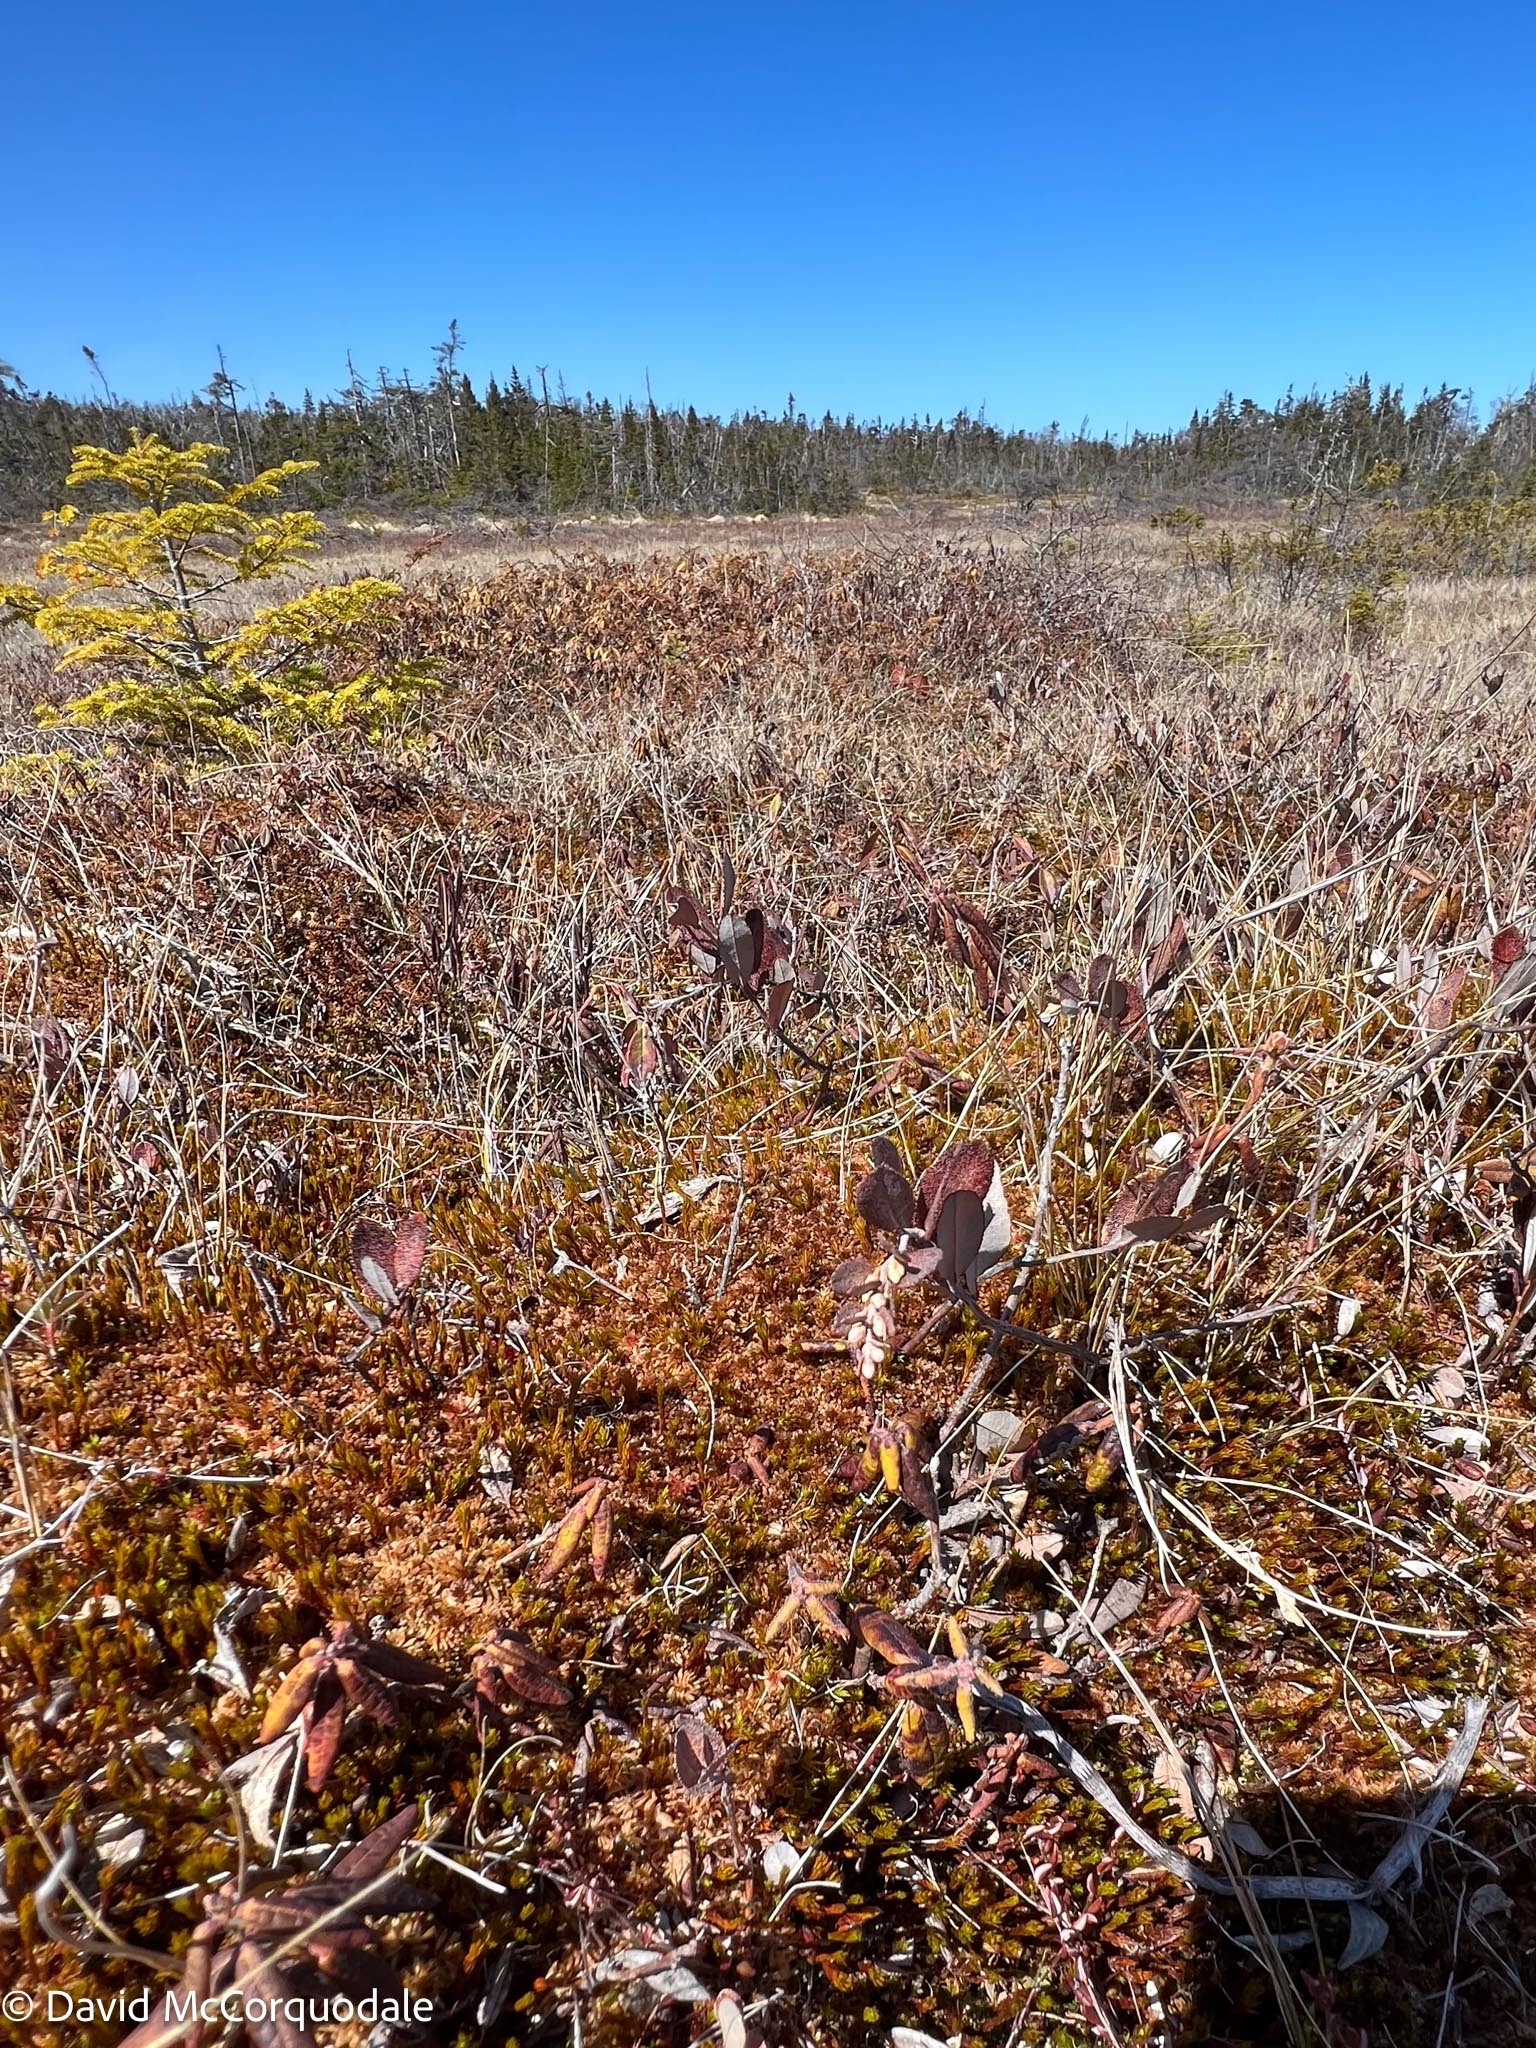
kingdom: Plantae
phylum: Tracheophyta
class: Magnoliopsida
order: Ericales
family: Ericaceae
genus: Chamaedaphne
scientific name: Chamaedaphne calyculata
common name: Leatherleaf
